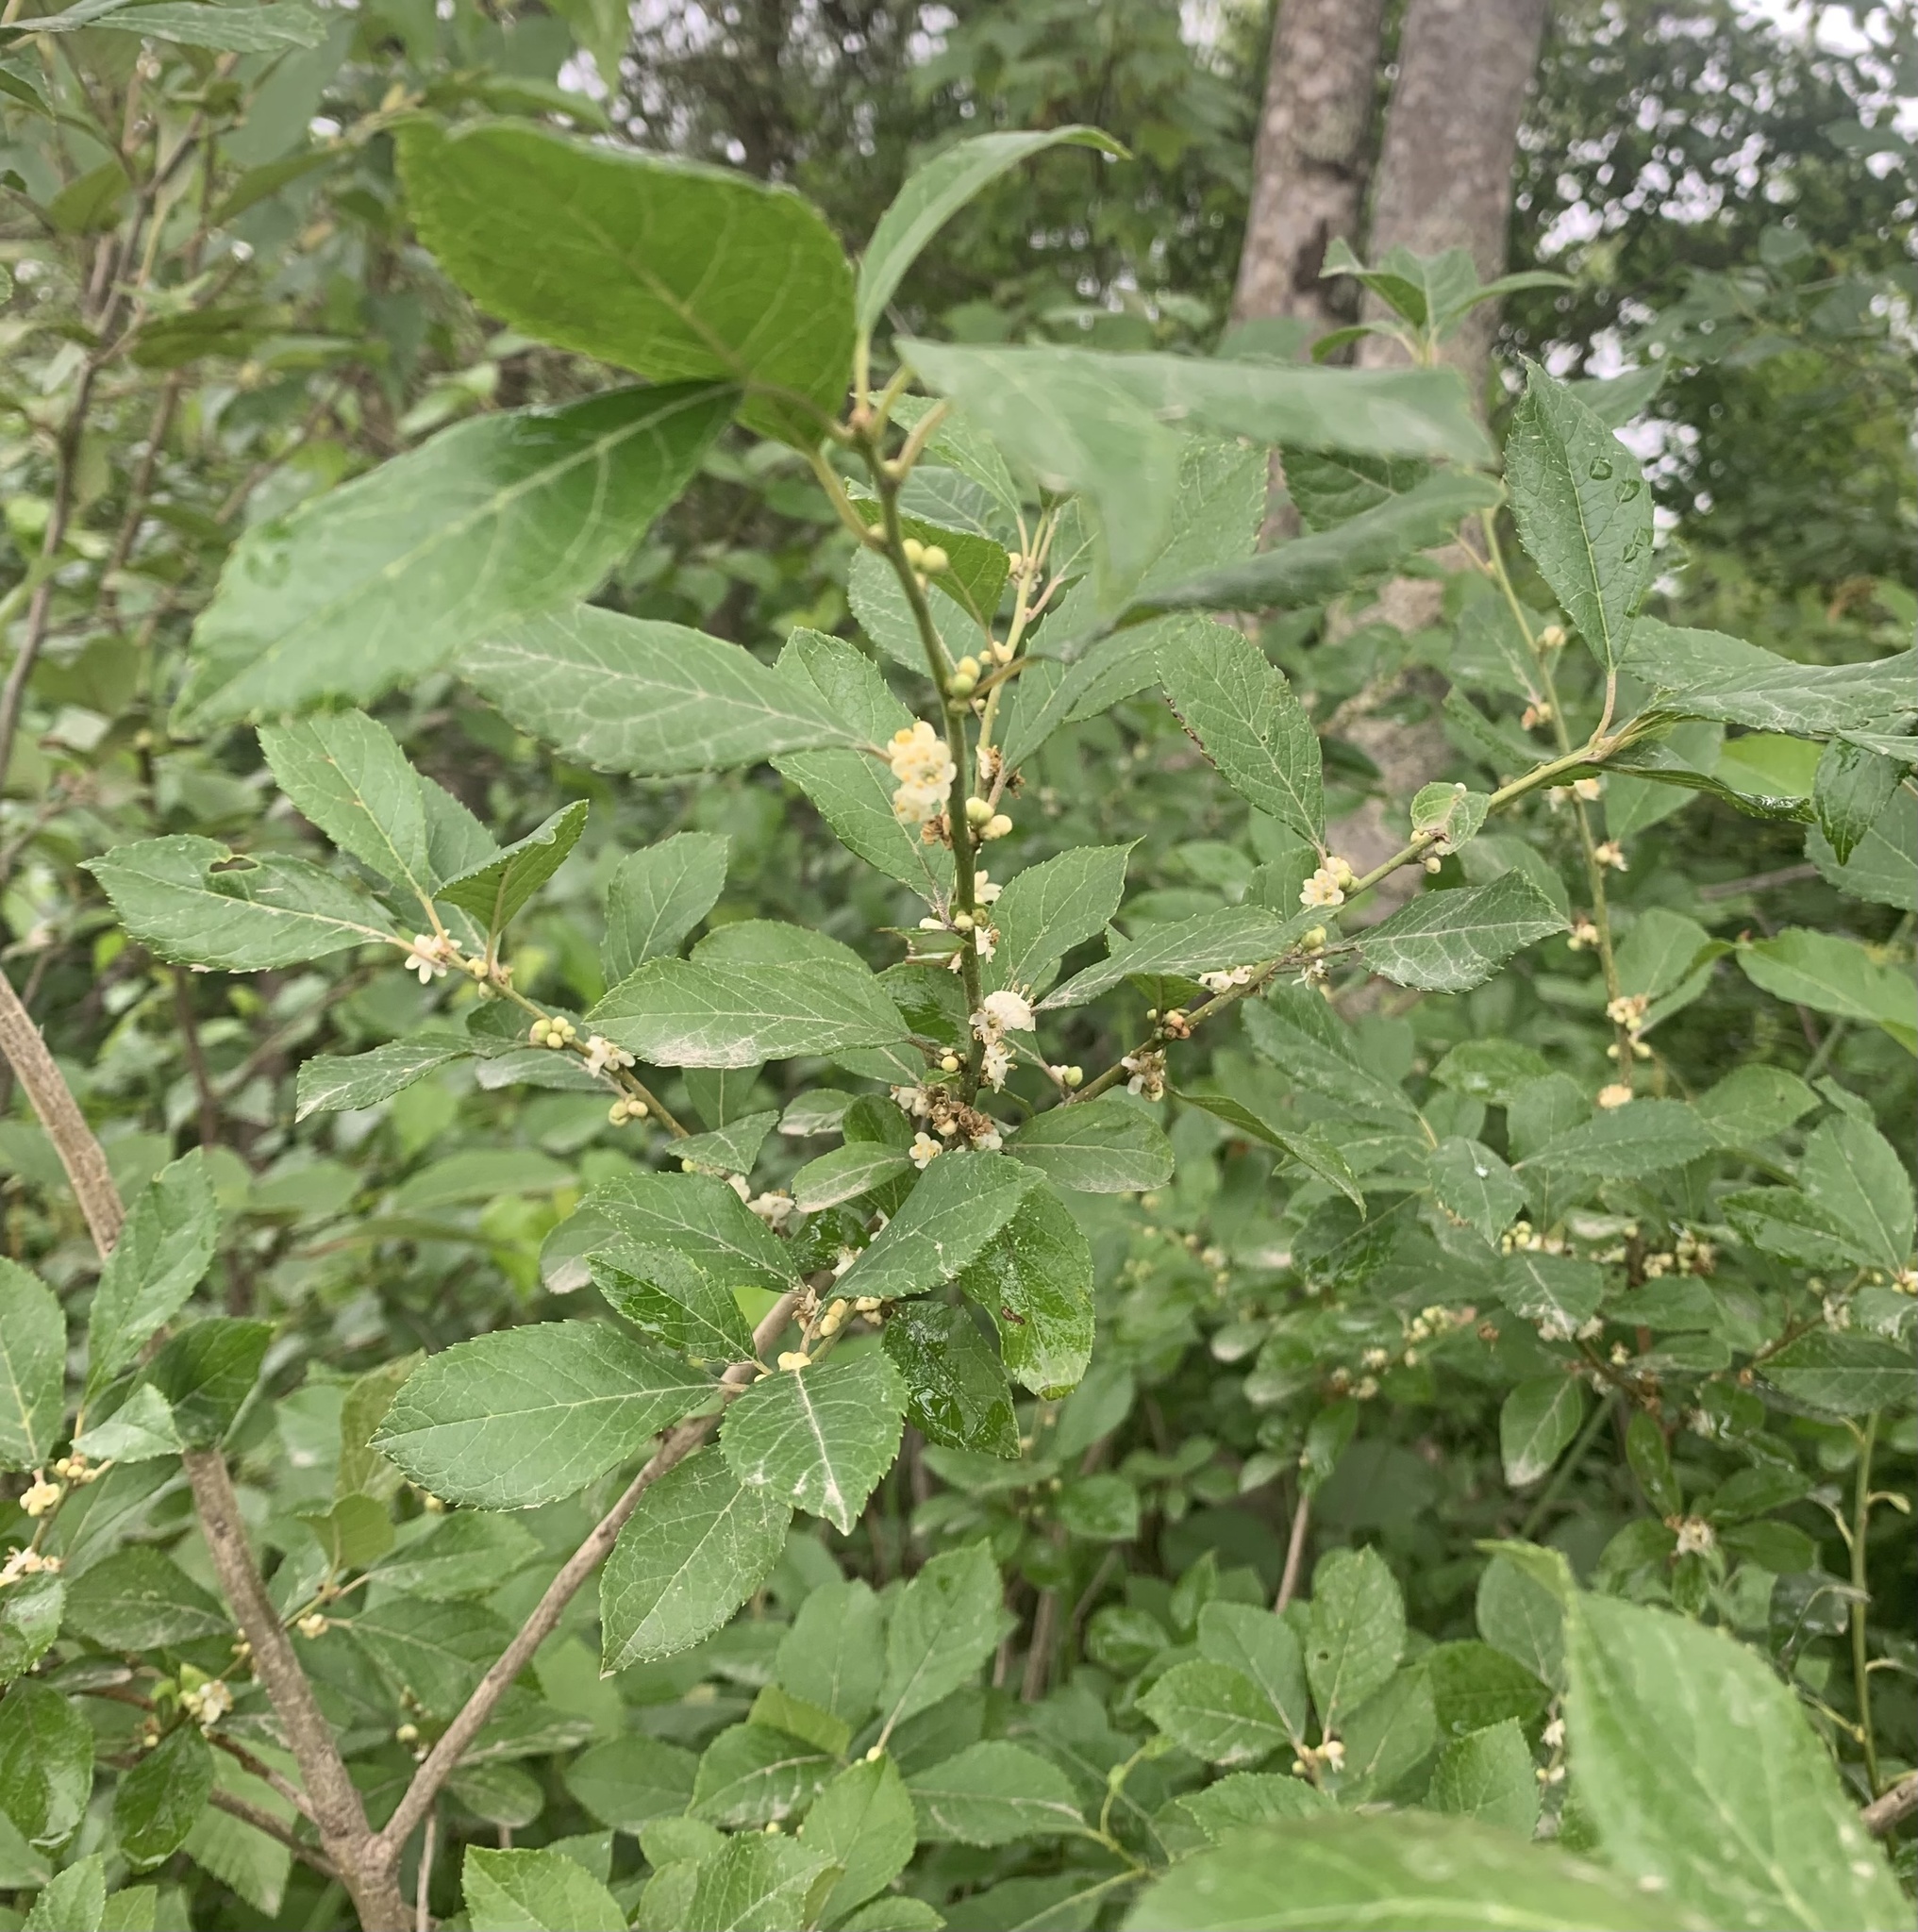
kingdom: Plantae
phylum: Tracheophyta
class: Magnoliopsida
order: Aquifoliales
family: Aquifoliaceae
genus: Ilex
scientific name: Ilex verticillata
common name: Virginia winterberry
